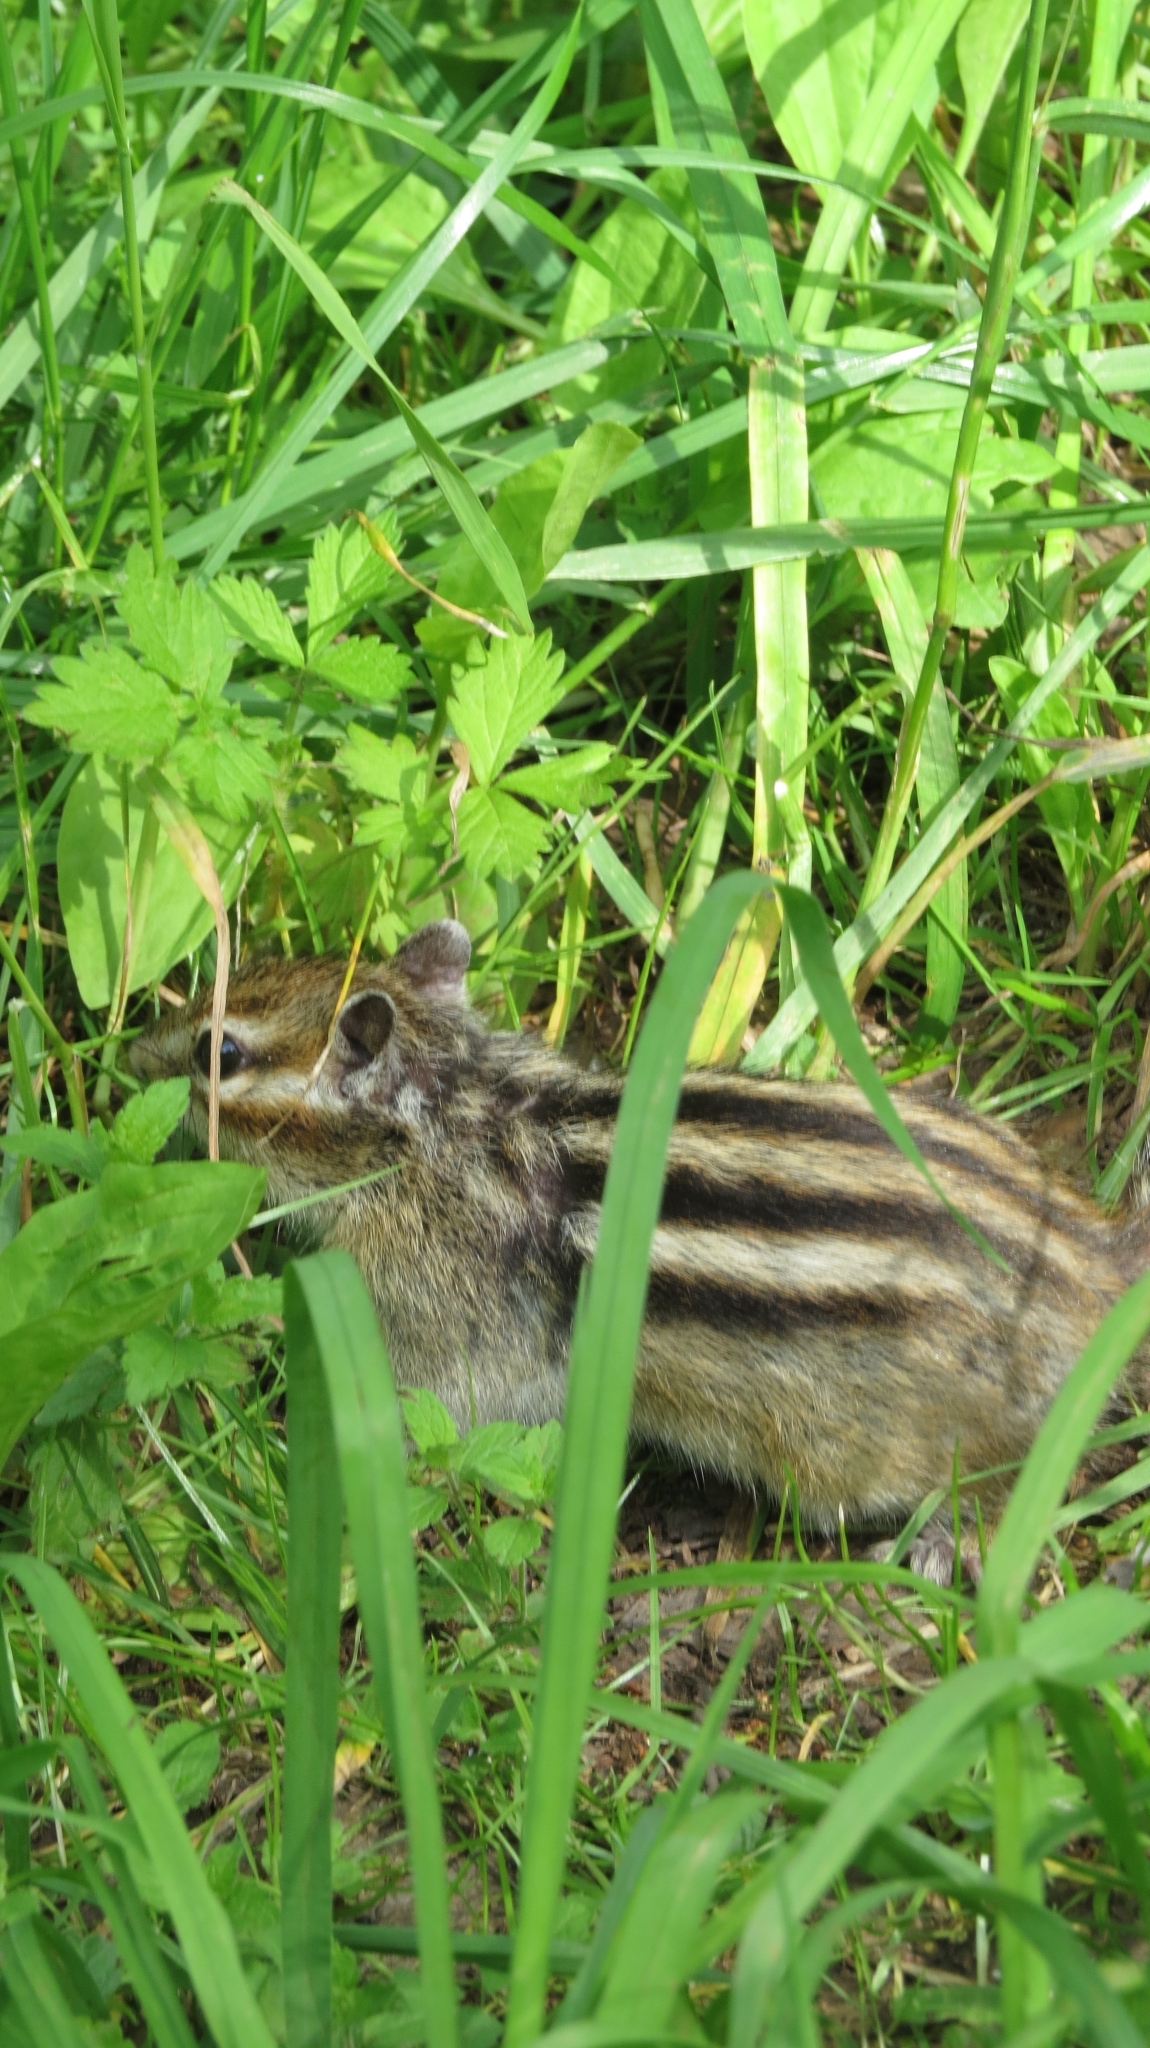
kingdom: Animalia
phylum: Chordata
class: Mammalia
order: Rodentia
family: Sciuridae
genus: Tamias
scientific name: Tamias sibiricus
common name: Siberian chipmunk
